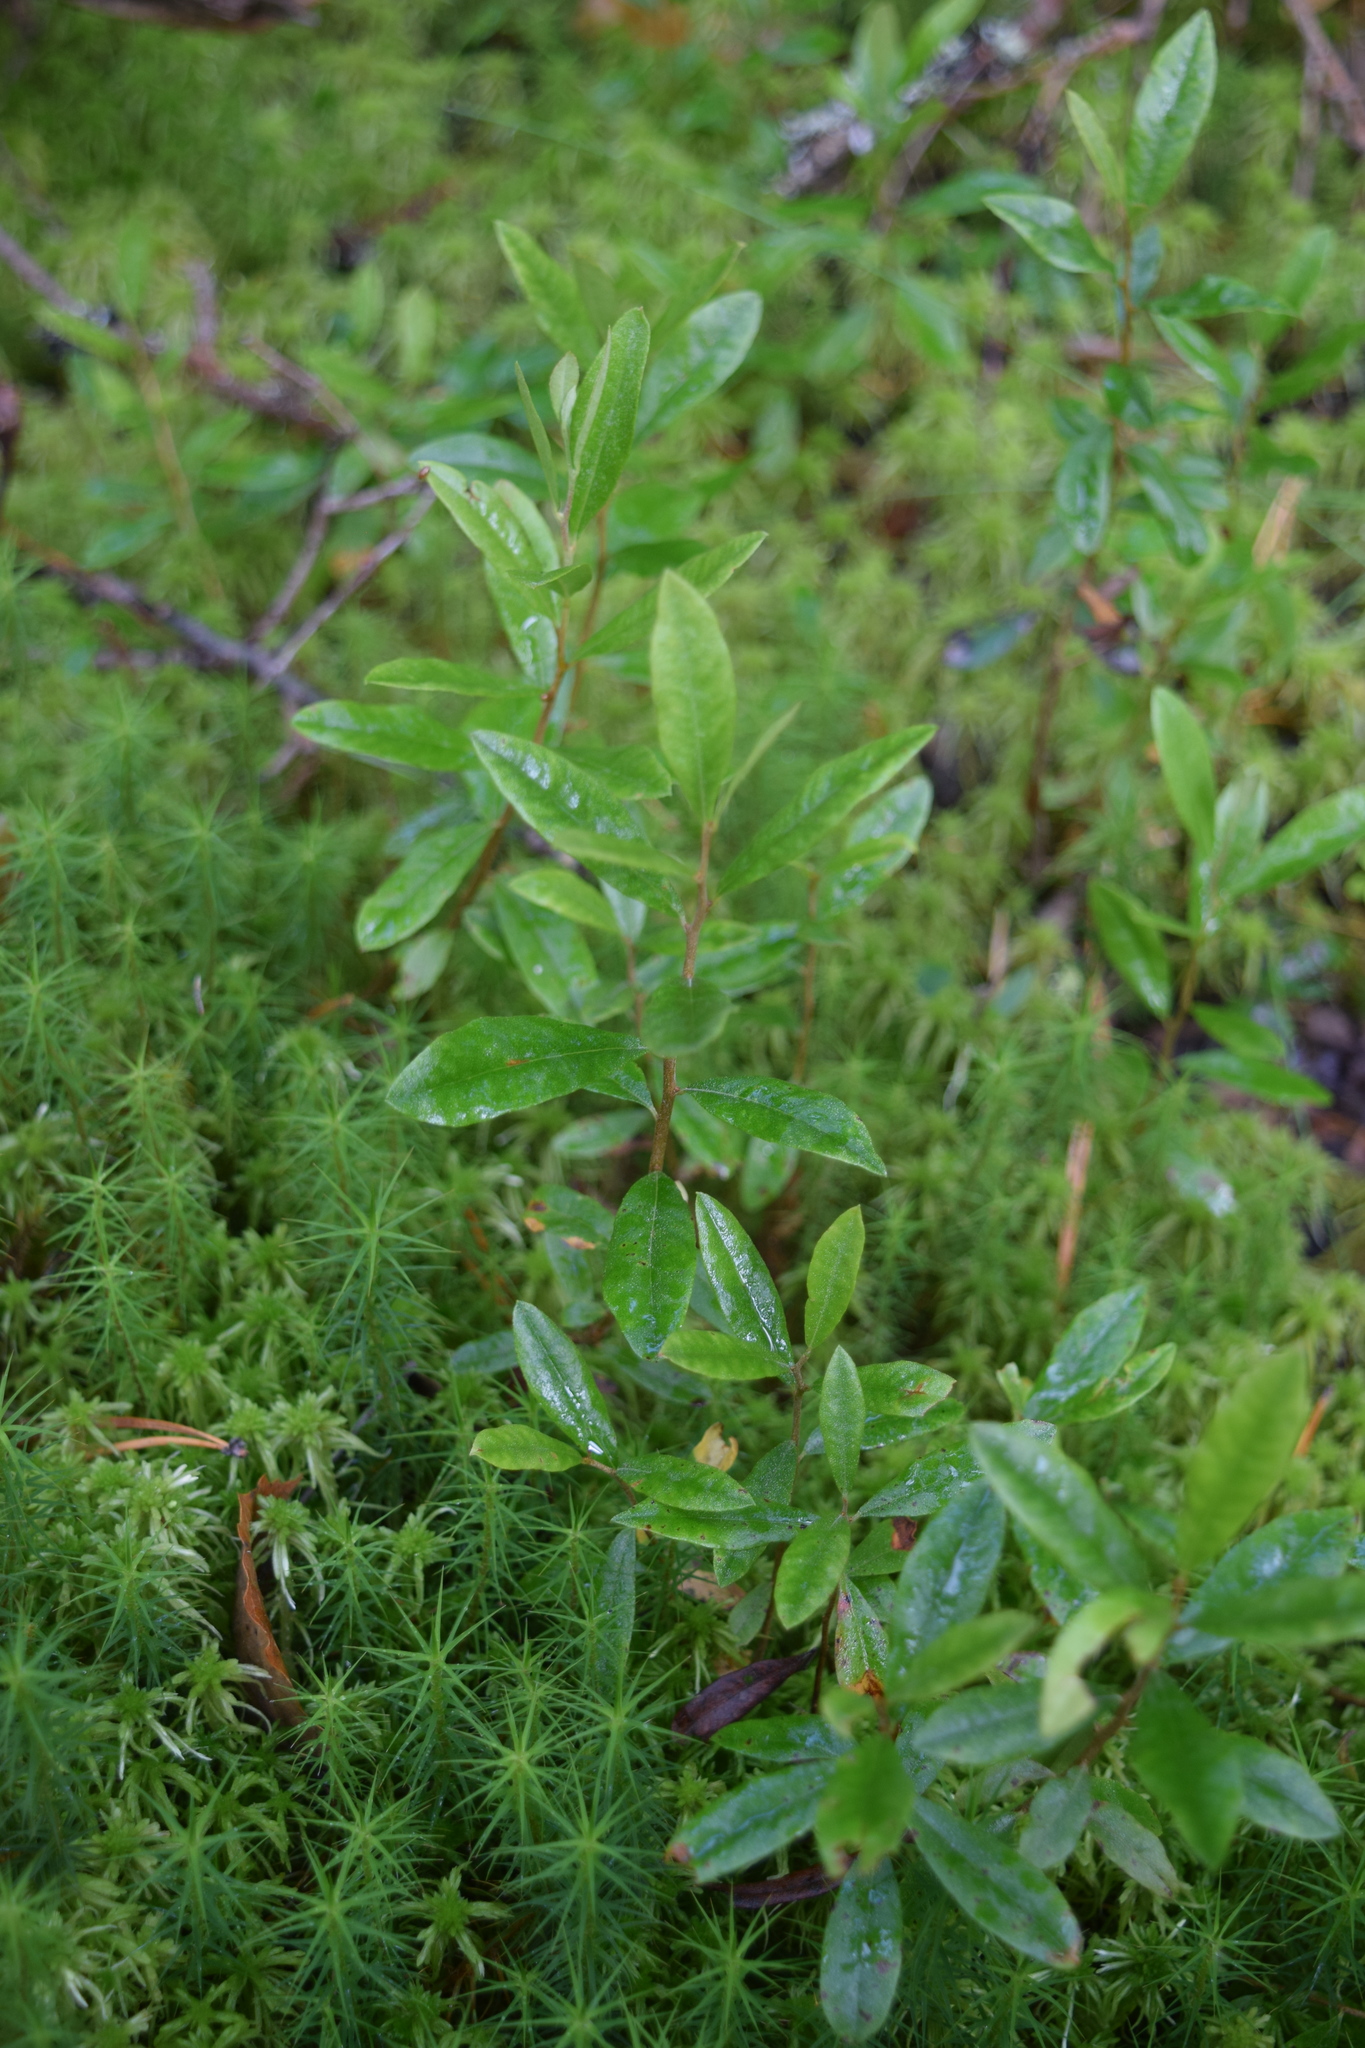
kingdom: Plantae
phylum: Tracheophyta
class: Magnoliopsida
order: Ericales
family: Ericaceae
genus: Chamaedaphne
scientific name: Chamaedaphne calyculata
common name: Leatherleaf
